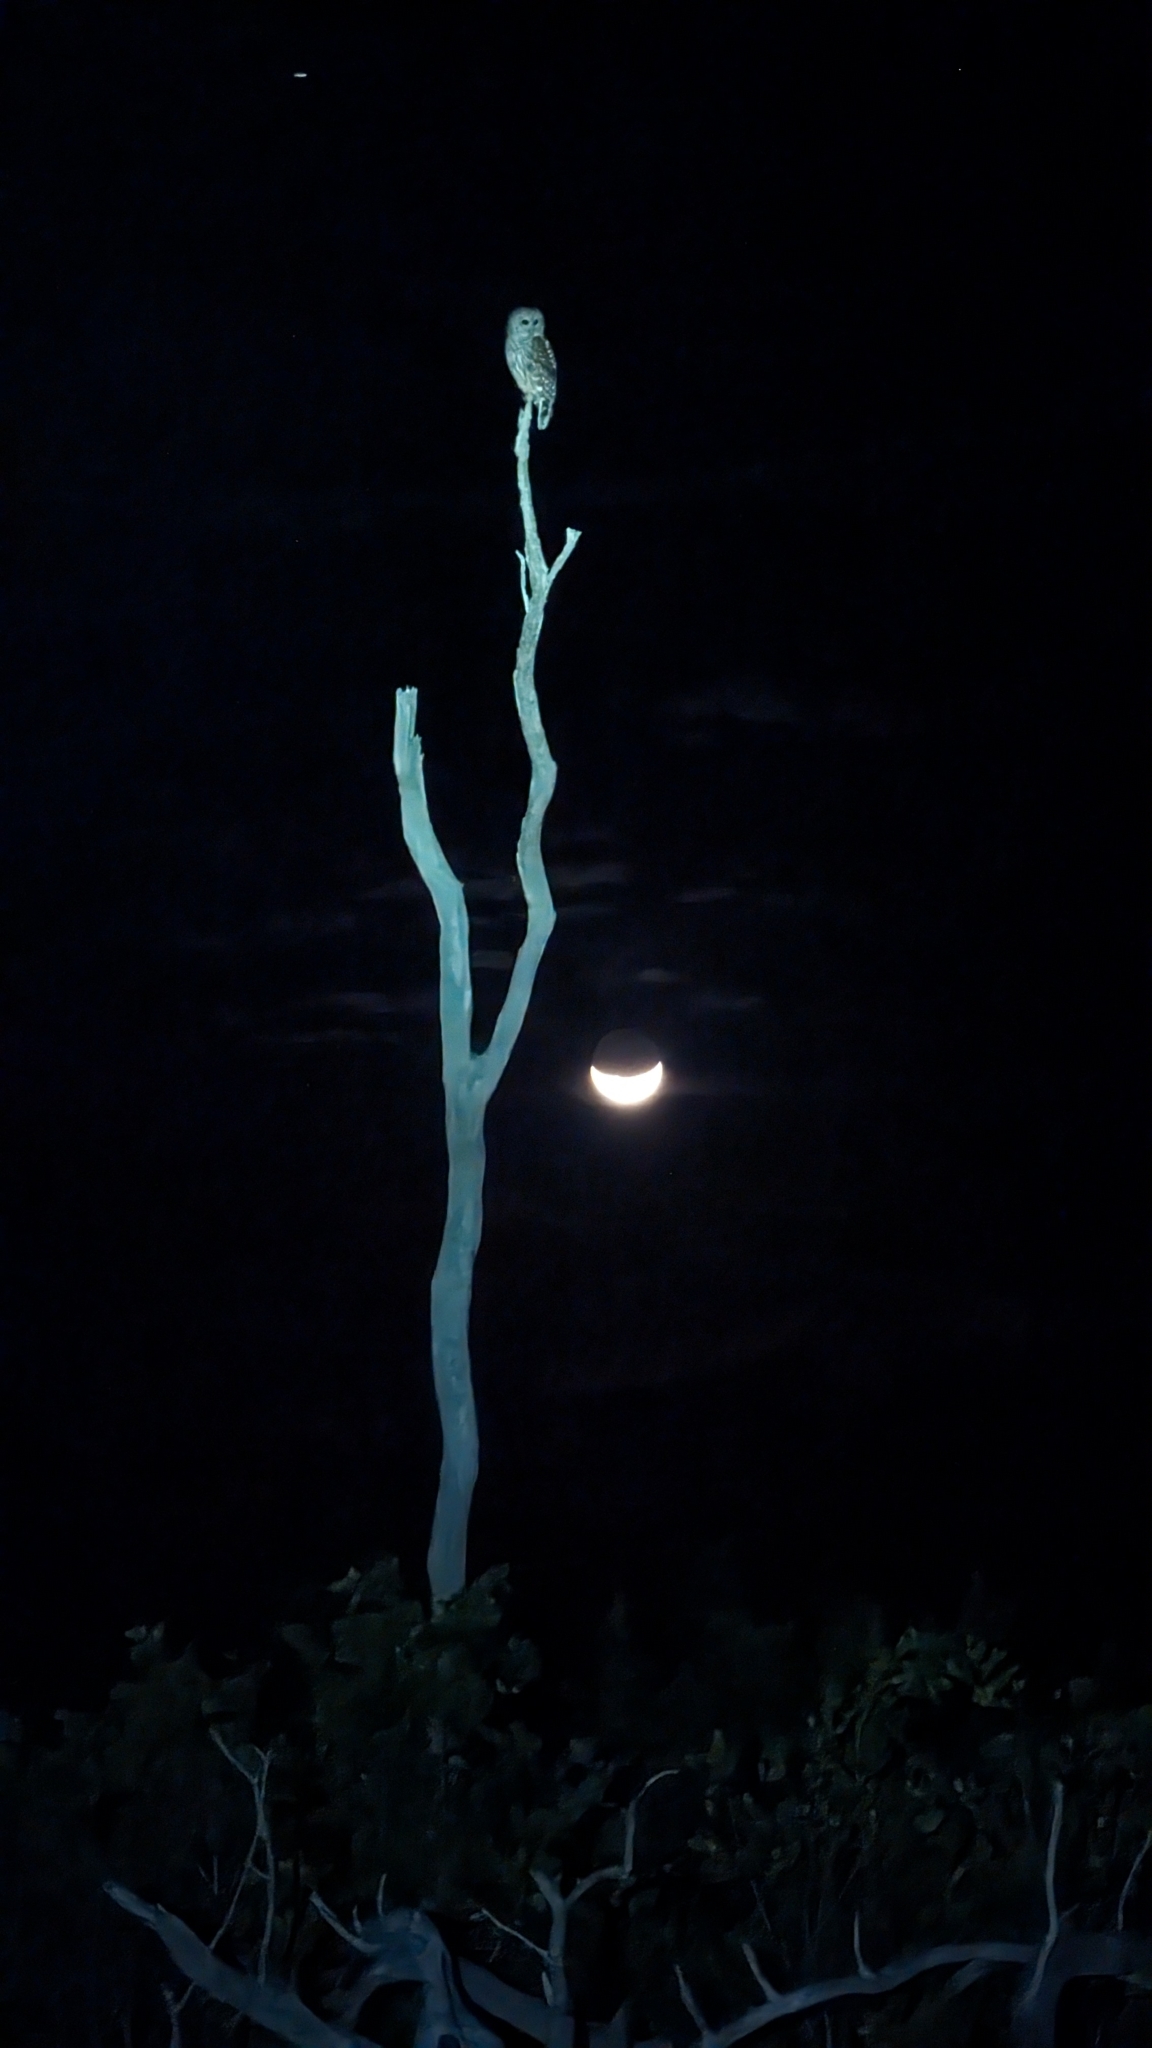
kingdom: Animalia
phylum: Chordata
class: Aves
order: Strigiformes
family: Strigidae
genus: Strix
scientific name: Strix varia
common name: Barred owl
